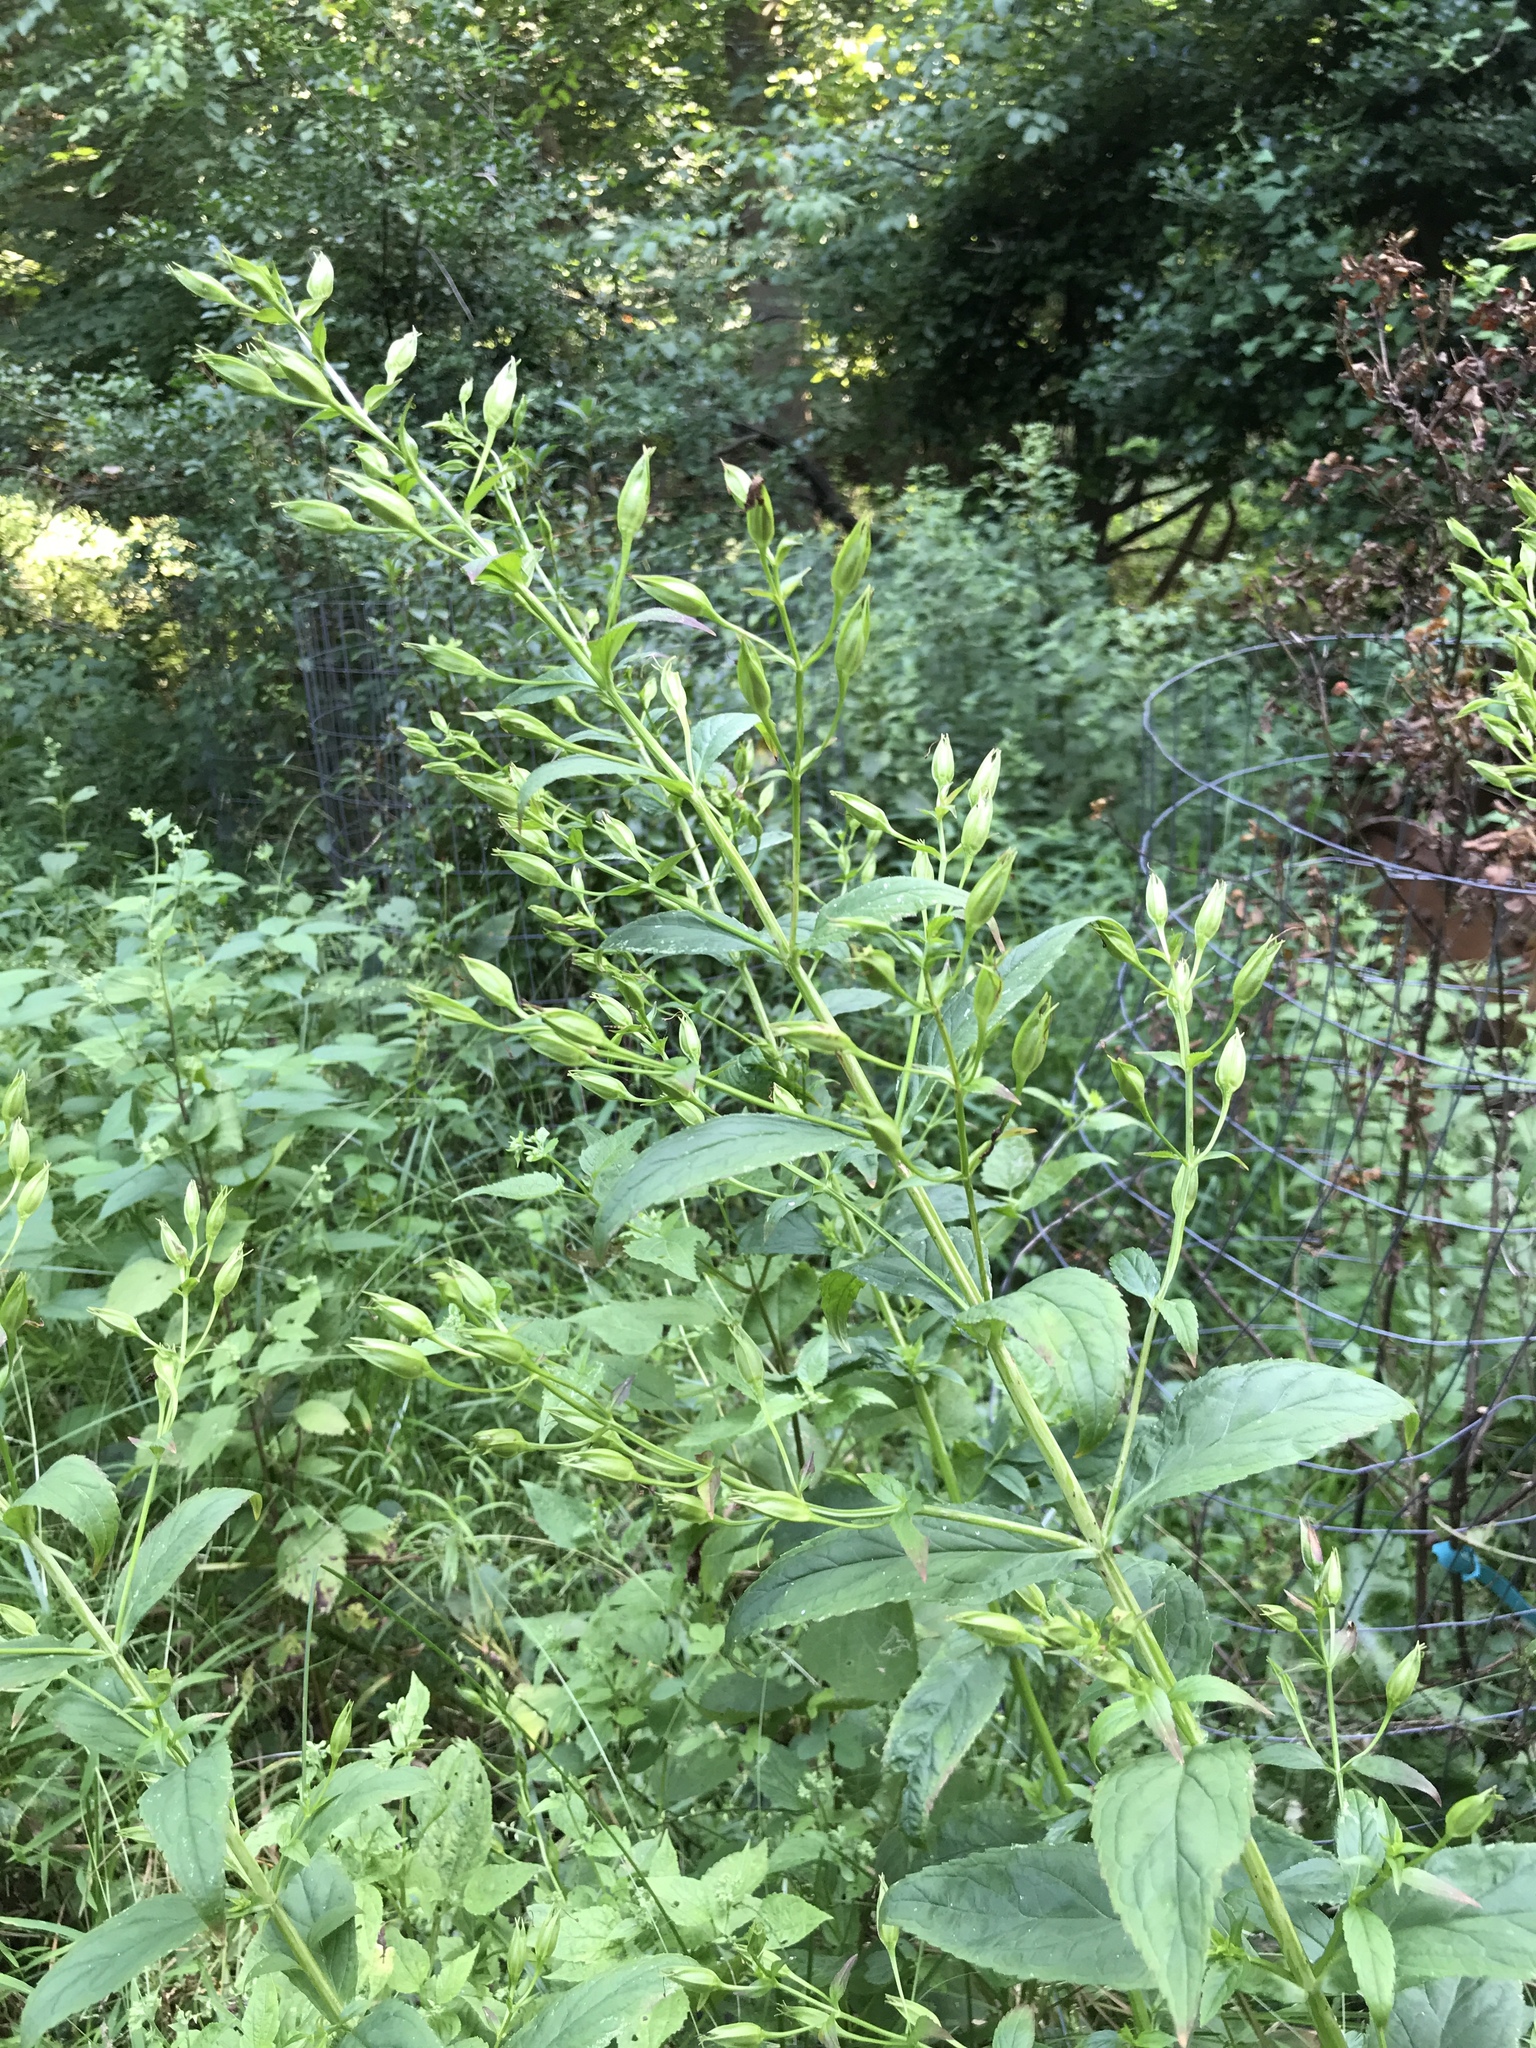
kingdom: Plantae
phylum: Tracheophyta
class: Magnoliopsida
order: Lamiales
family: Phrymaceae
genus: Mimulus
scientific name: Mimulus ringens
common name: Allegheny monkeyflower
